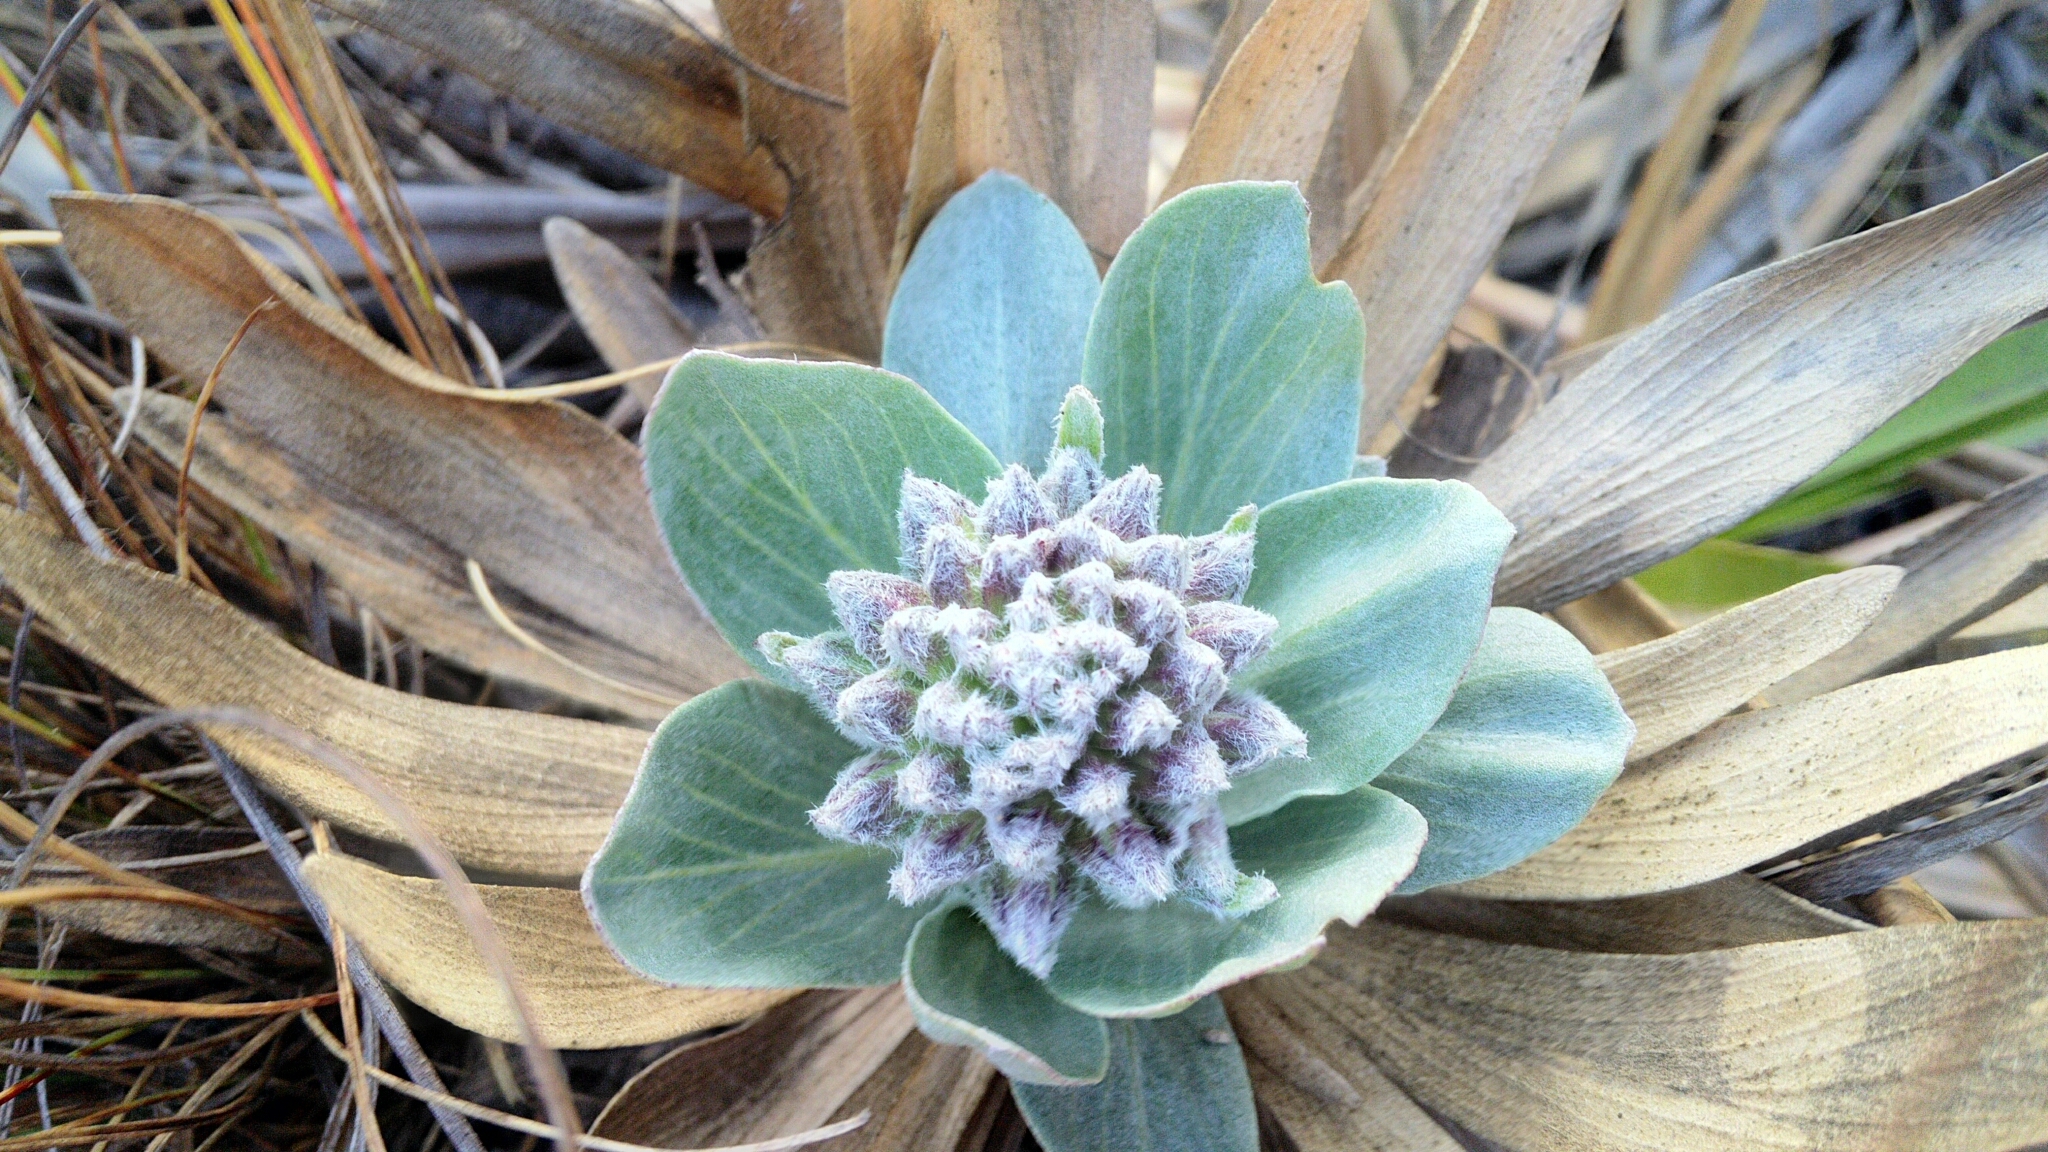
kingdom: Plantae
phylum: Tracheophyta
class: Magnoliopsida
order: Asterales
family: Asteraceae
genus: Chresta
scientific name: Chresta plantaginifolia
